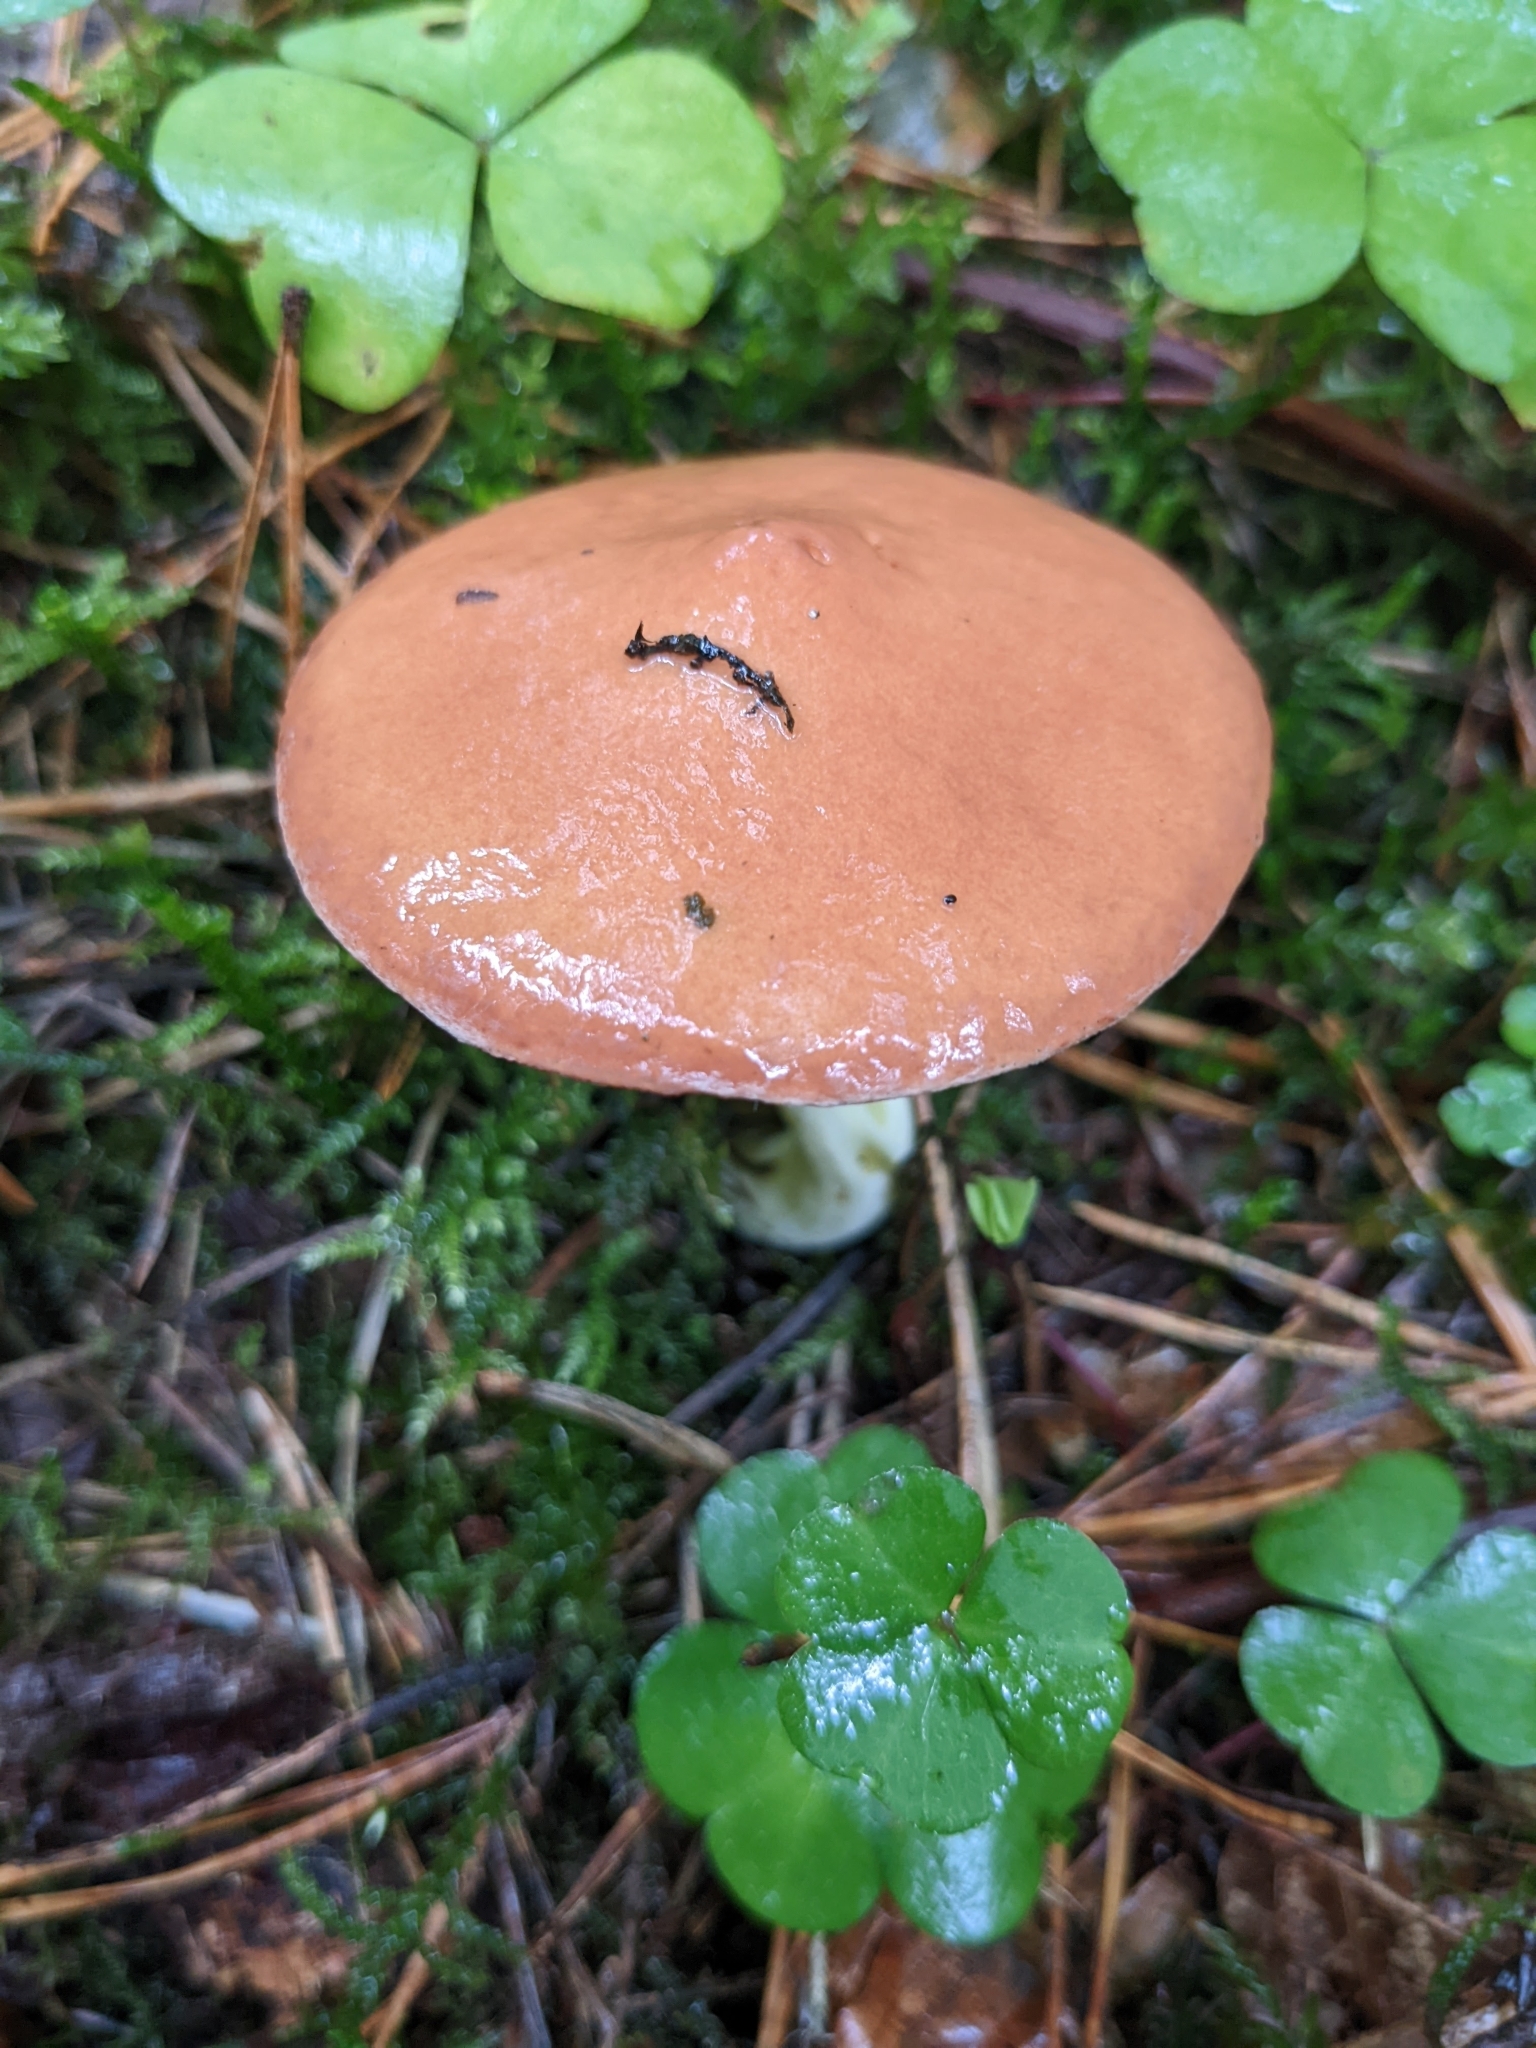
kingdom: Fungi
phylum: Basidiomycota
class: Agaricomycetes
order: Boletales
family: Suillaceae
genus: Suillus
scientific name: Suillus granulatus
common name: Weeping bolete
